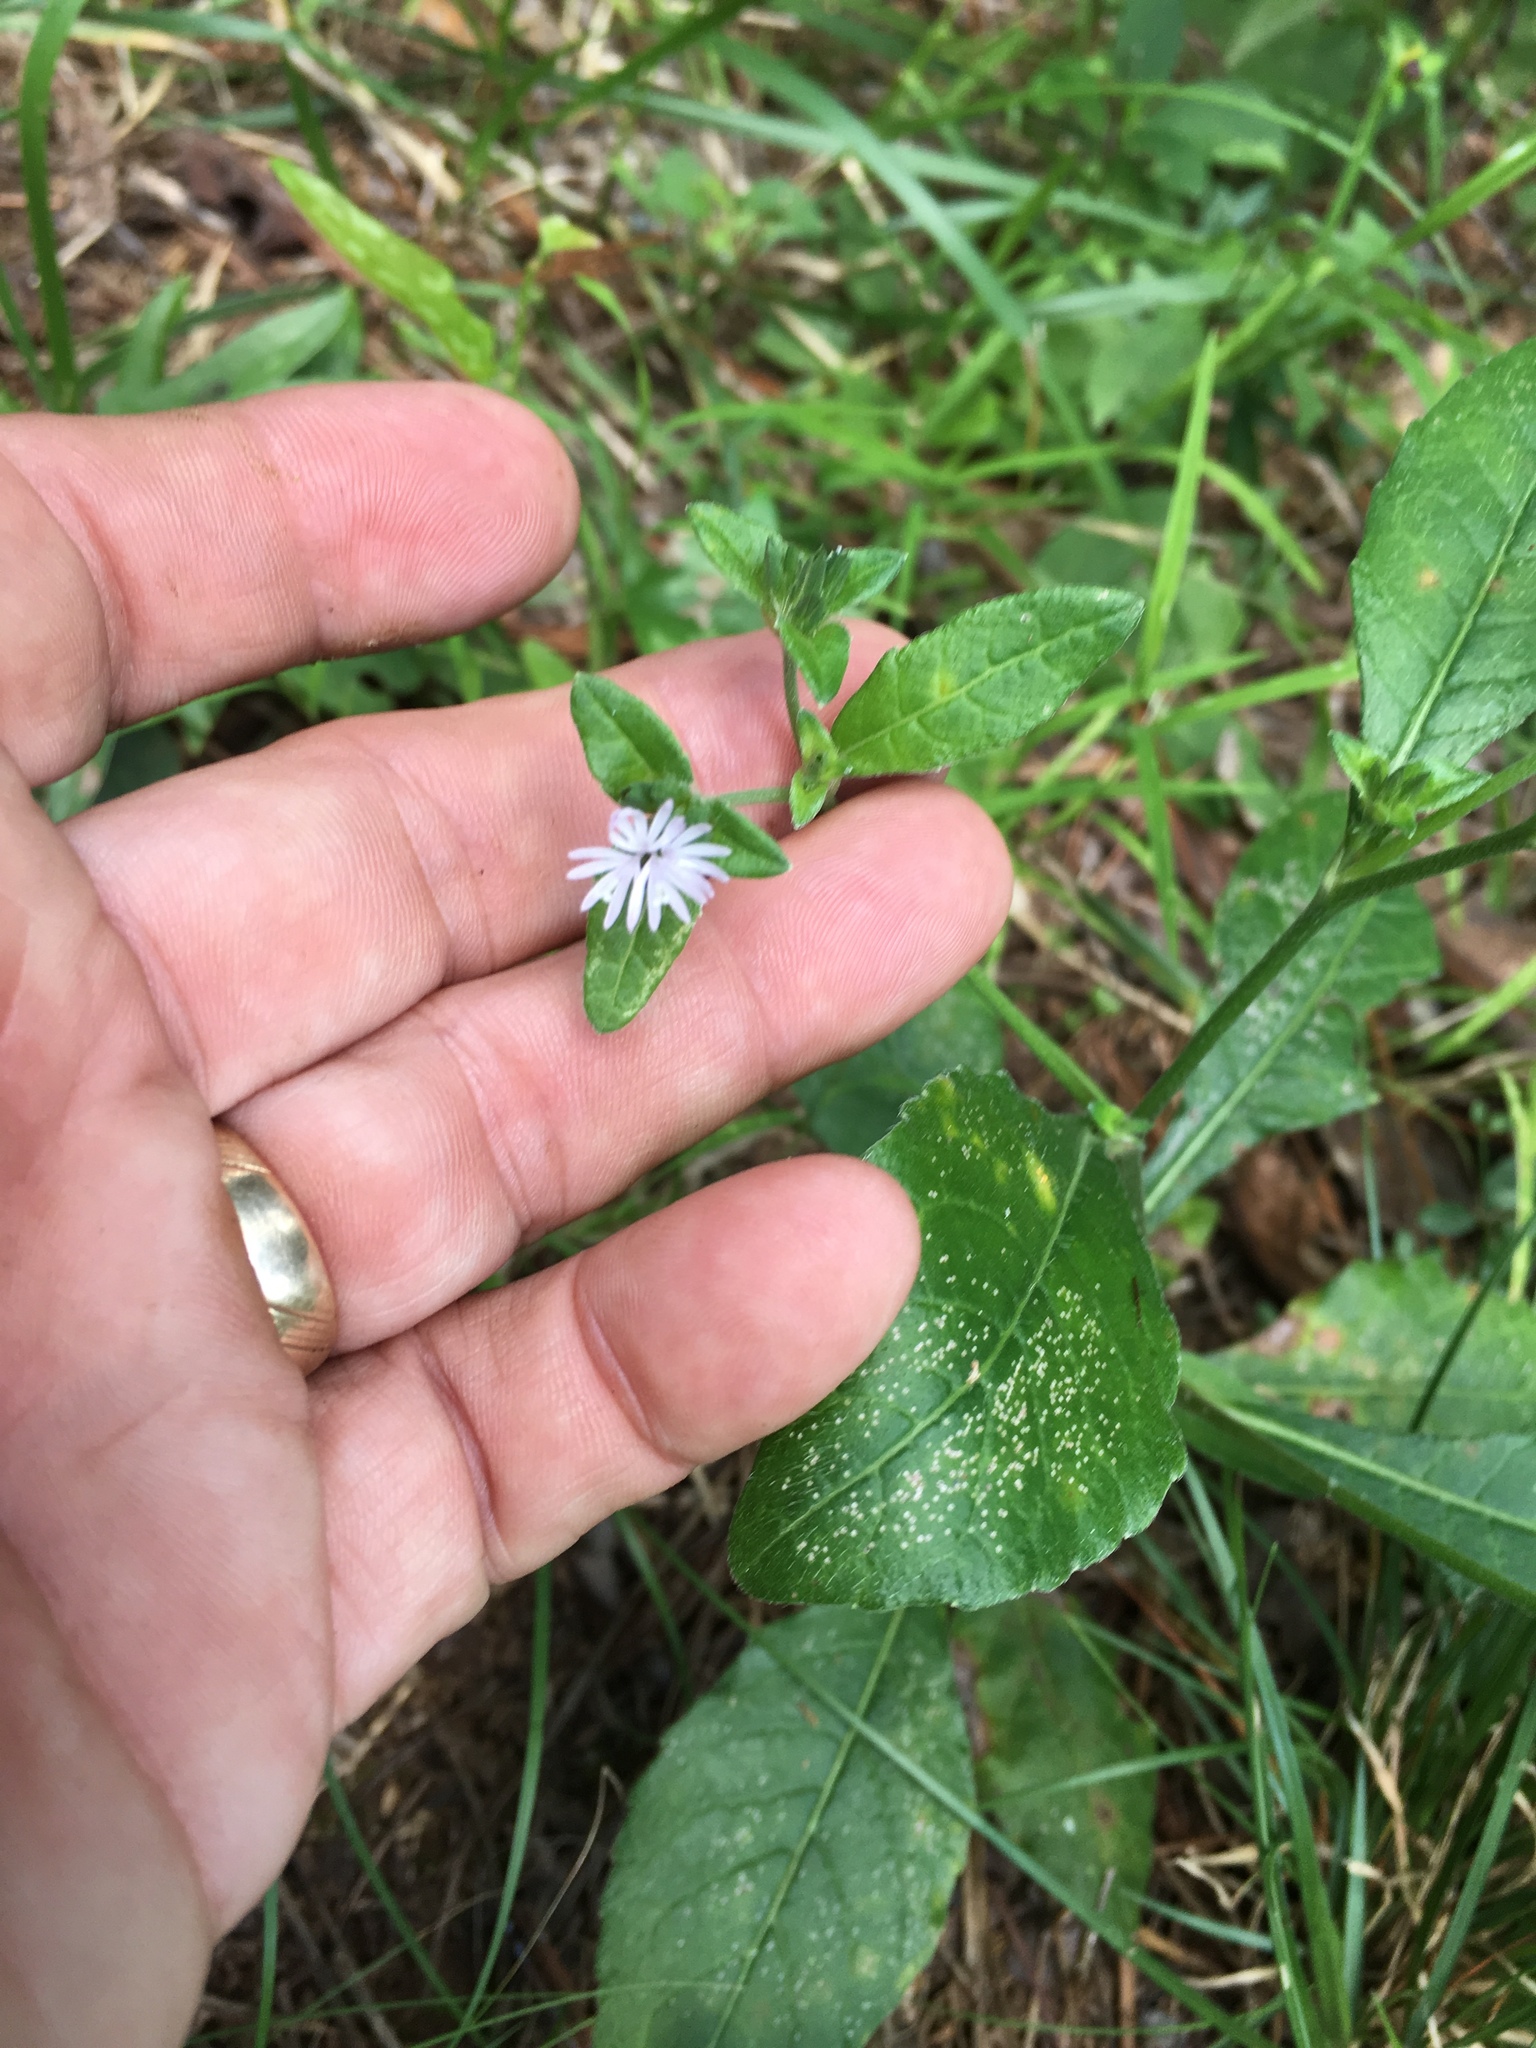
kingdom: Plantae
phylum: Tracheophyta
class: Magnoliopsida
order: Asterales
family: Asteraceae
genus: Elephantopus
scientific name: Elephantopus carolinianus
